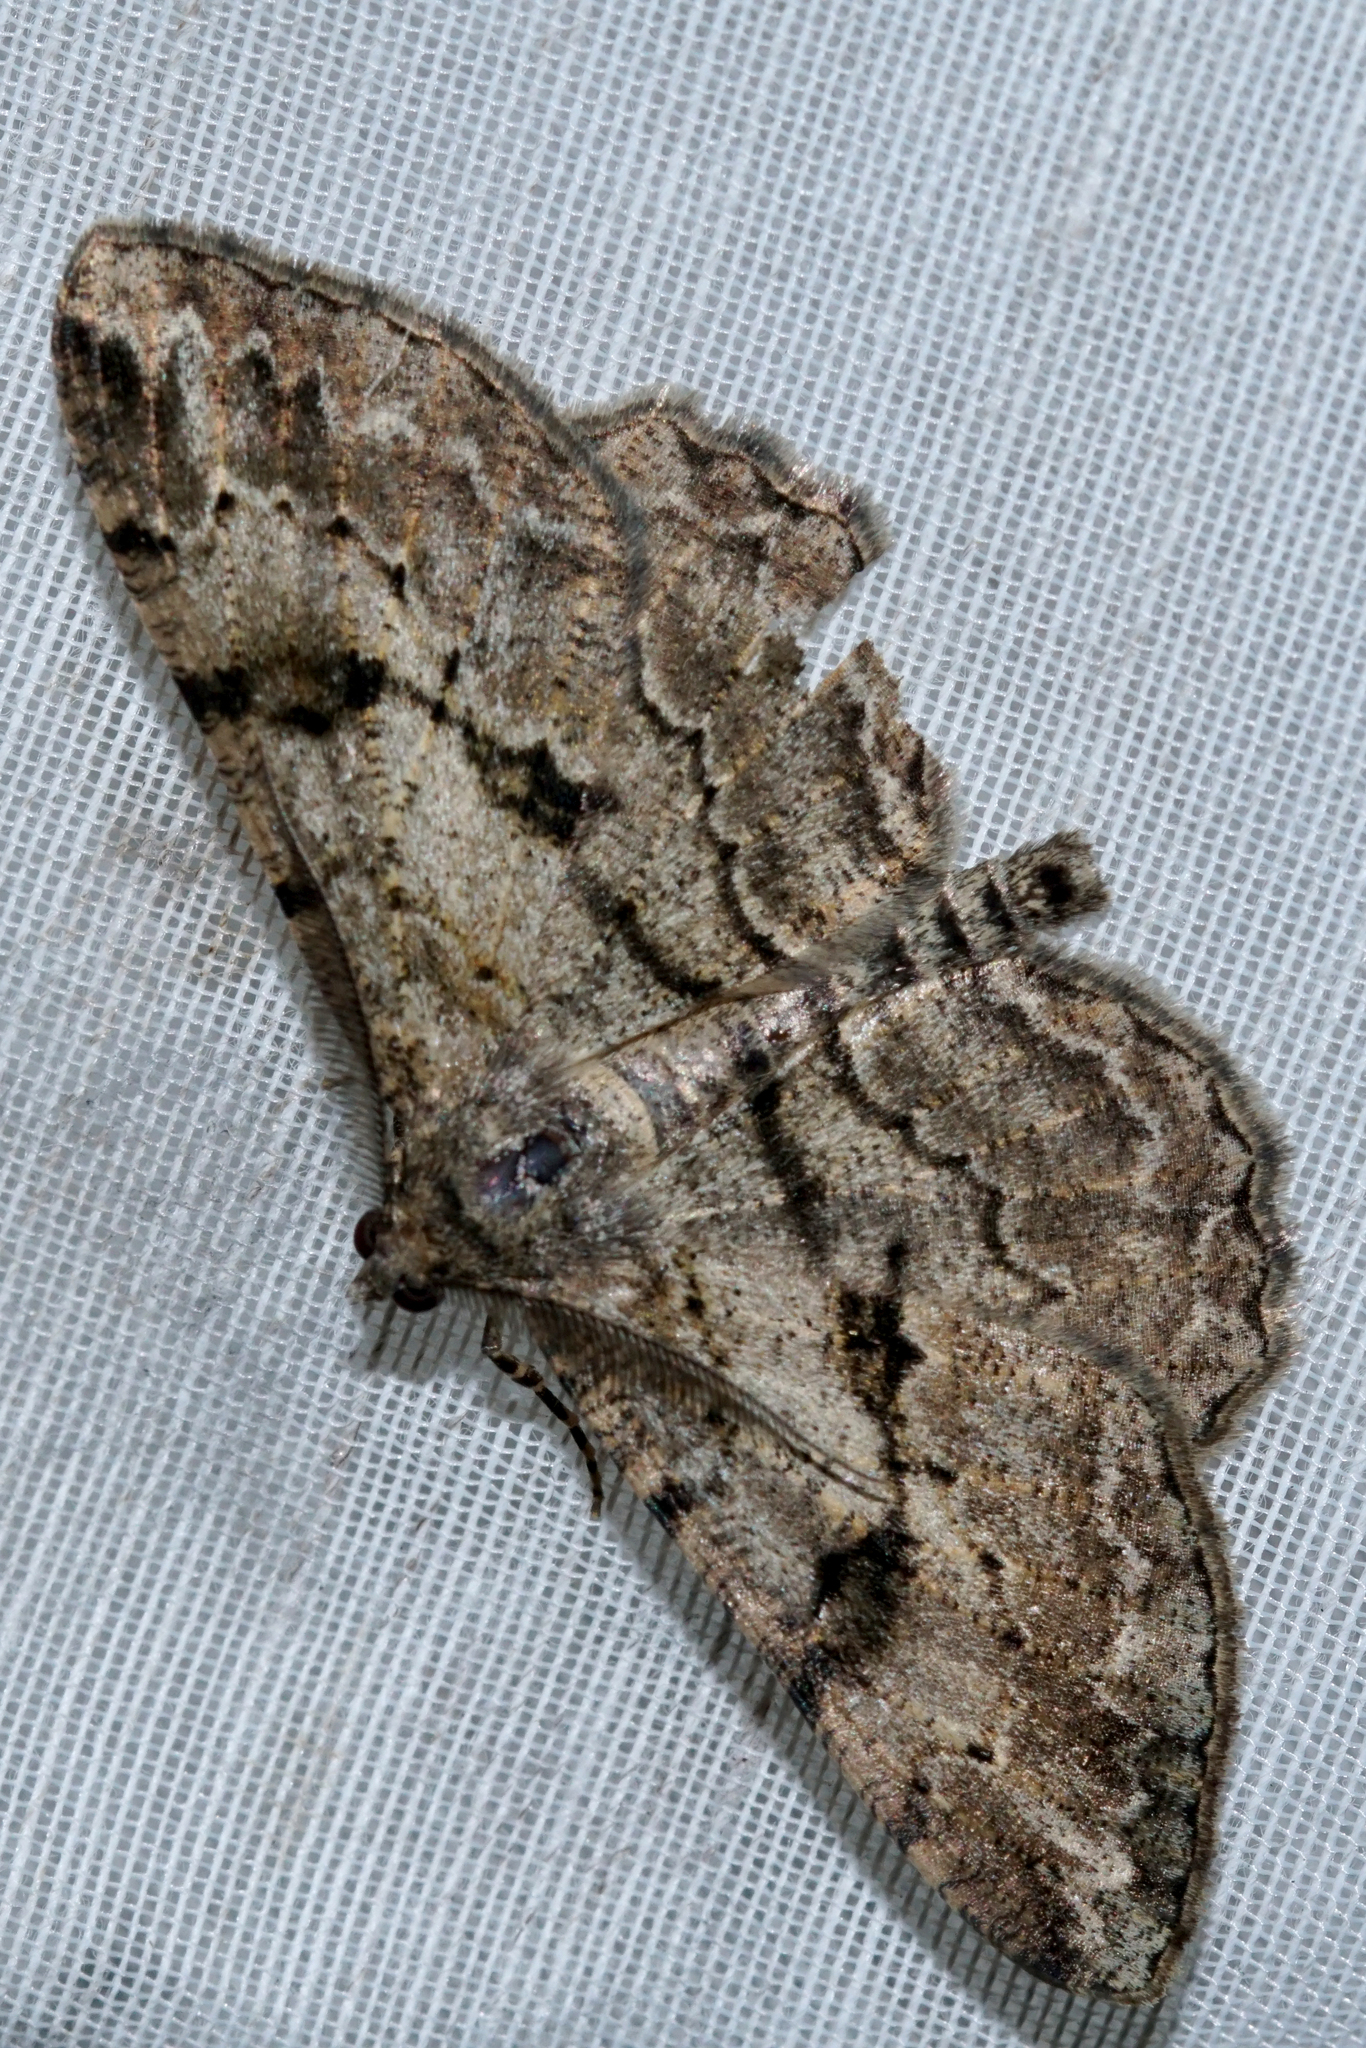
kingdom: Animalia
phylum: Arthropoda
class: Insecta
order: Lepidoptera
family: Geometridae
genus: Peribatodes
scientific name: Peribatodes rhomboidaria
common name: Willow beauty
